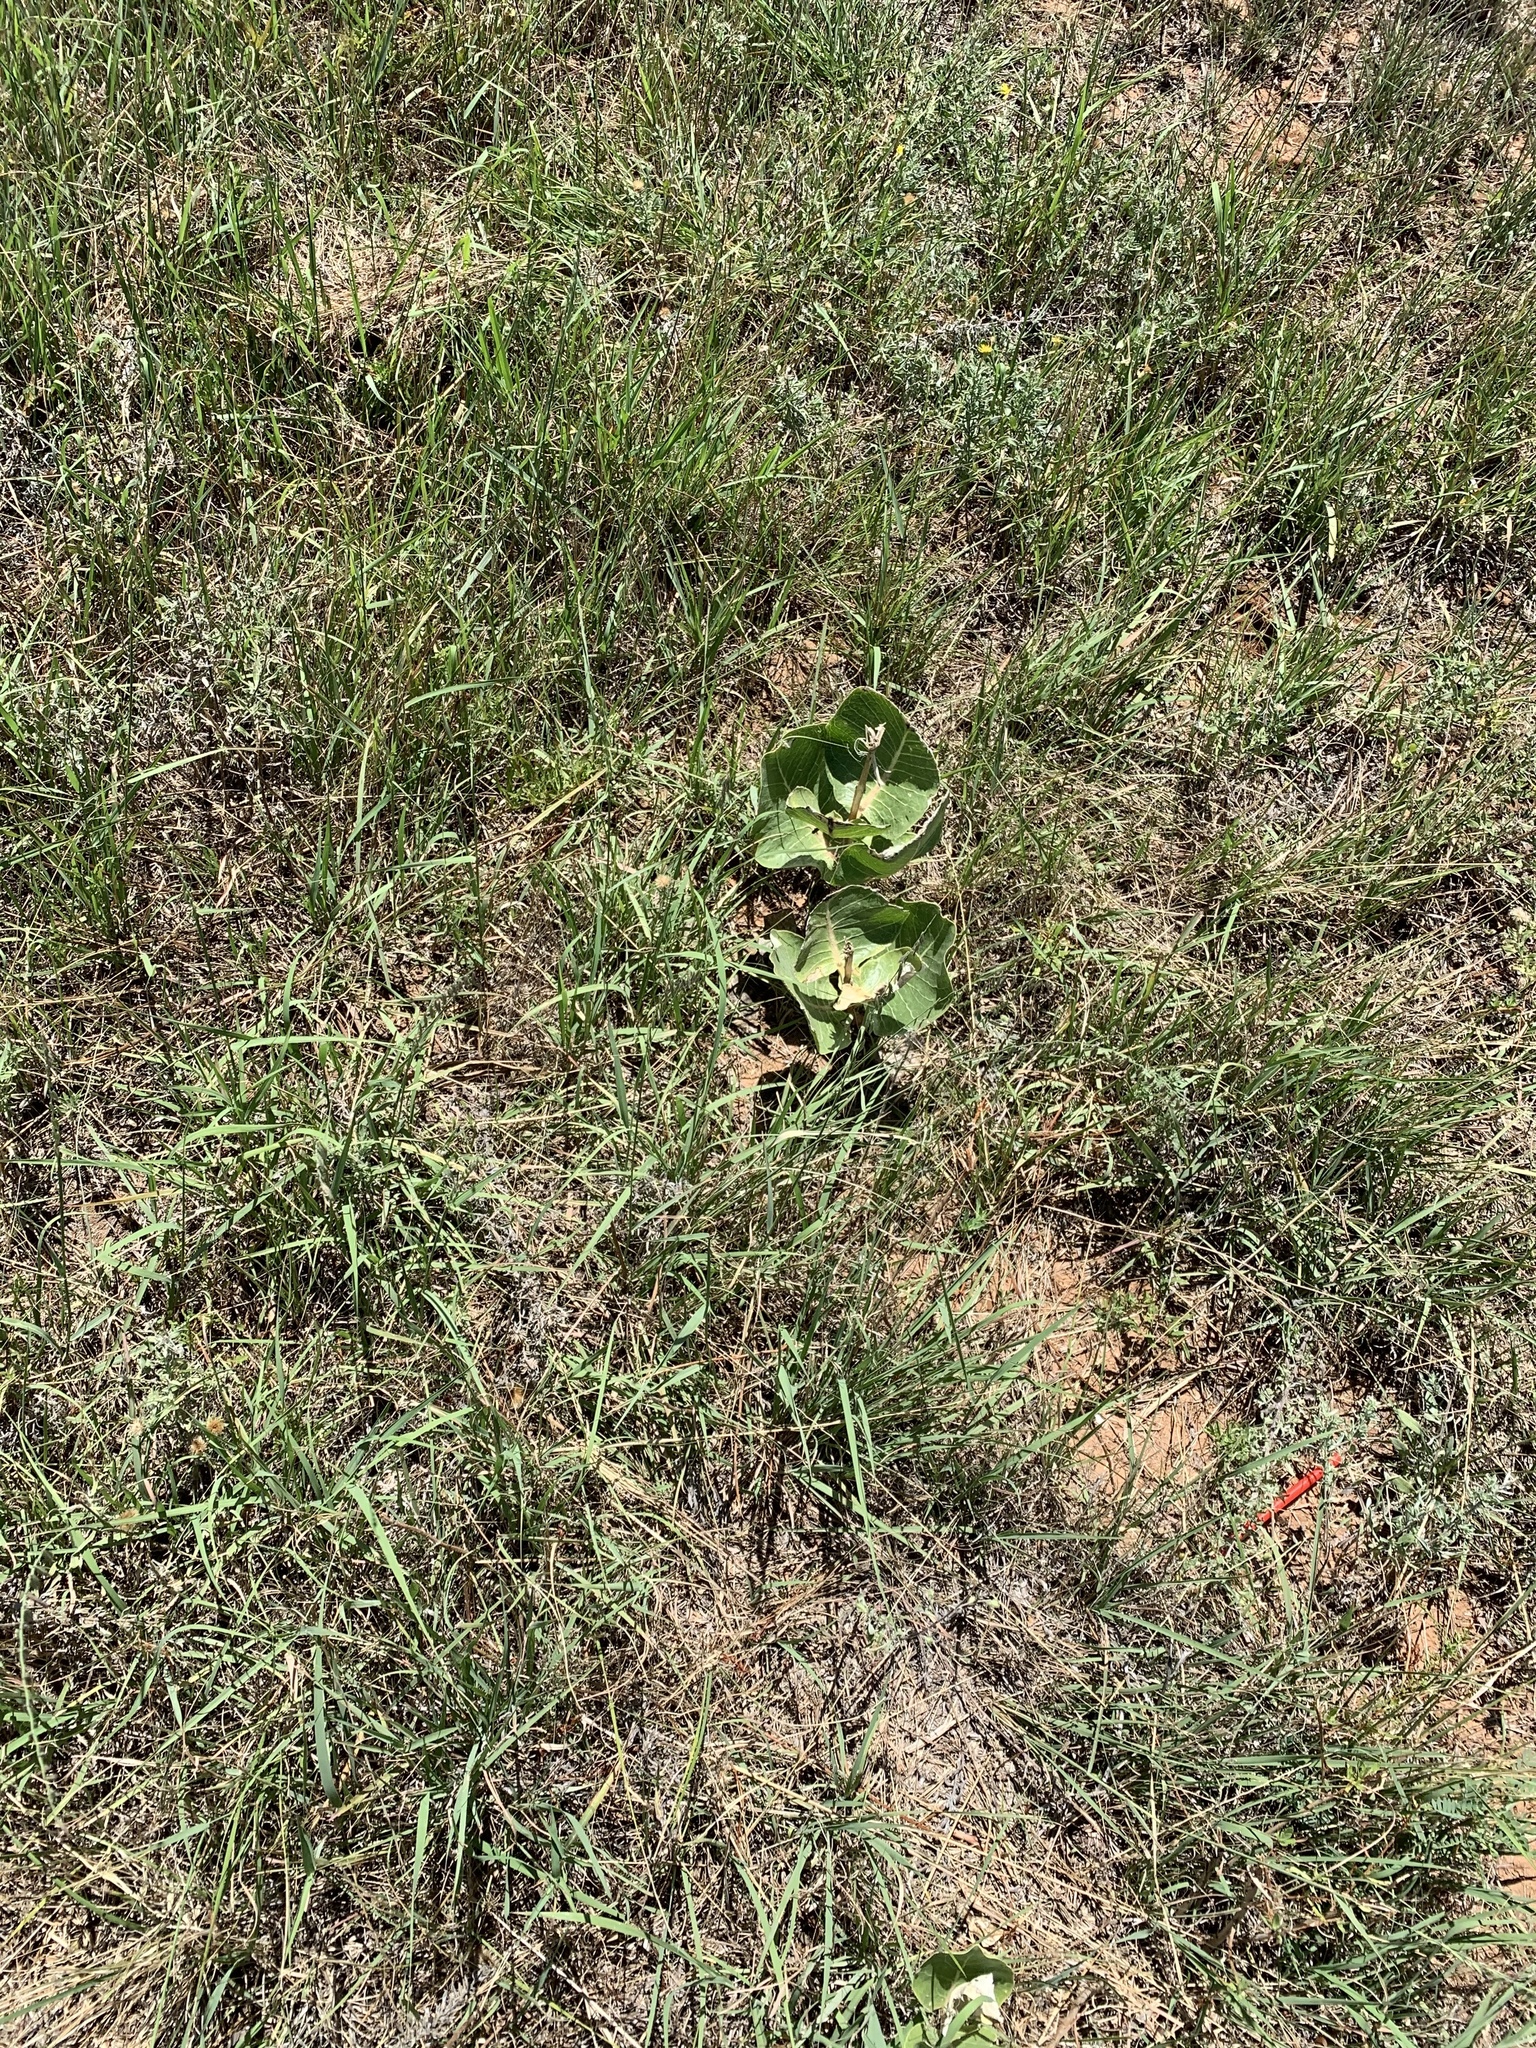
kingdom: Plantae
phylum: Tracheophyta
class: Magnoliopsida
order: Gentianales
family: Apocynaceae
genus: Asclepias
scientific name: Asclepias latifolia
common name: Broadleaf milkweed
